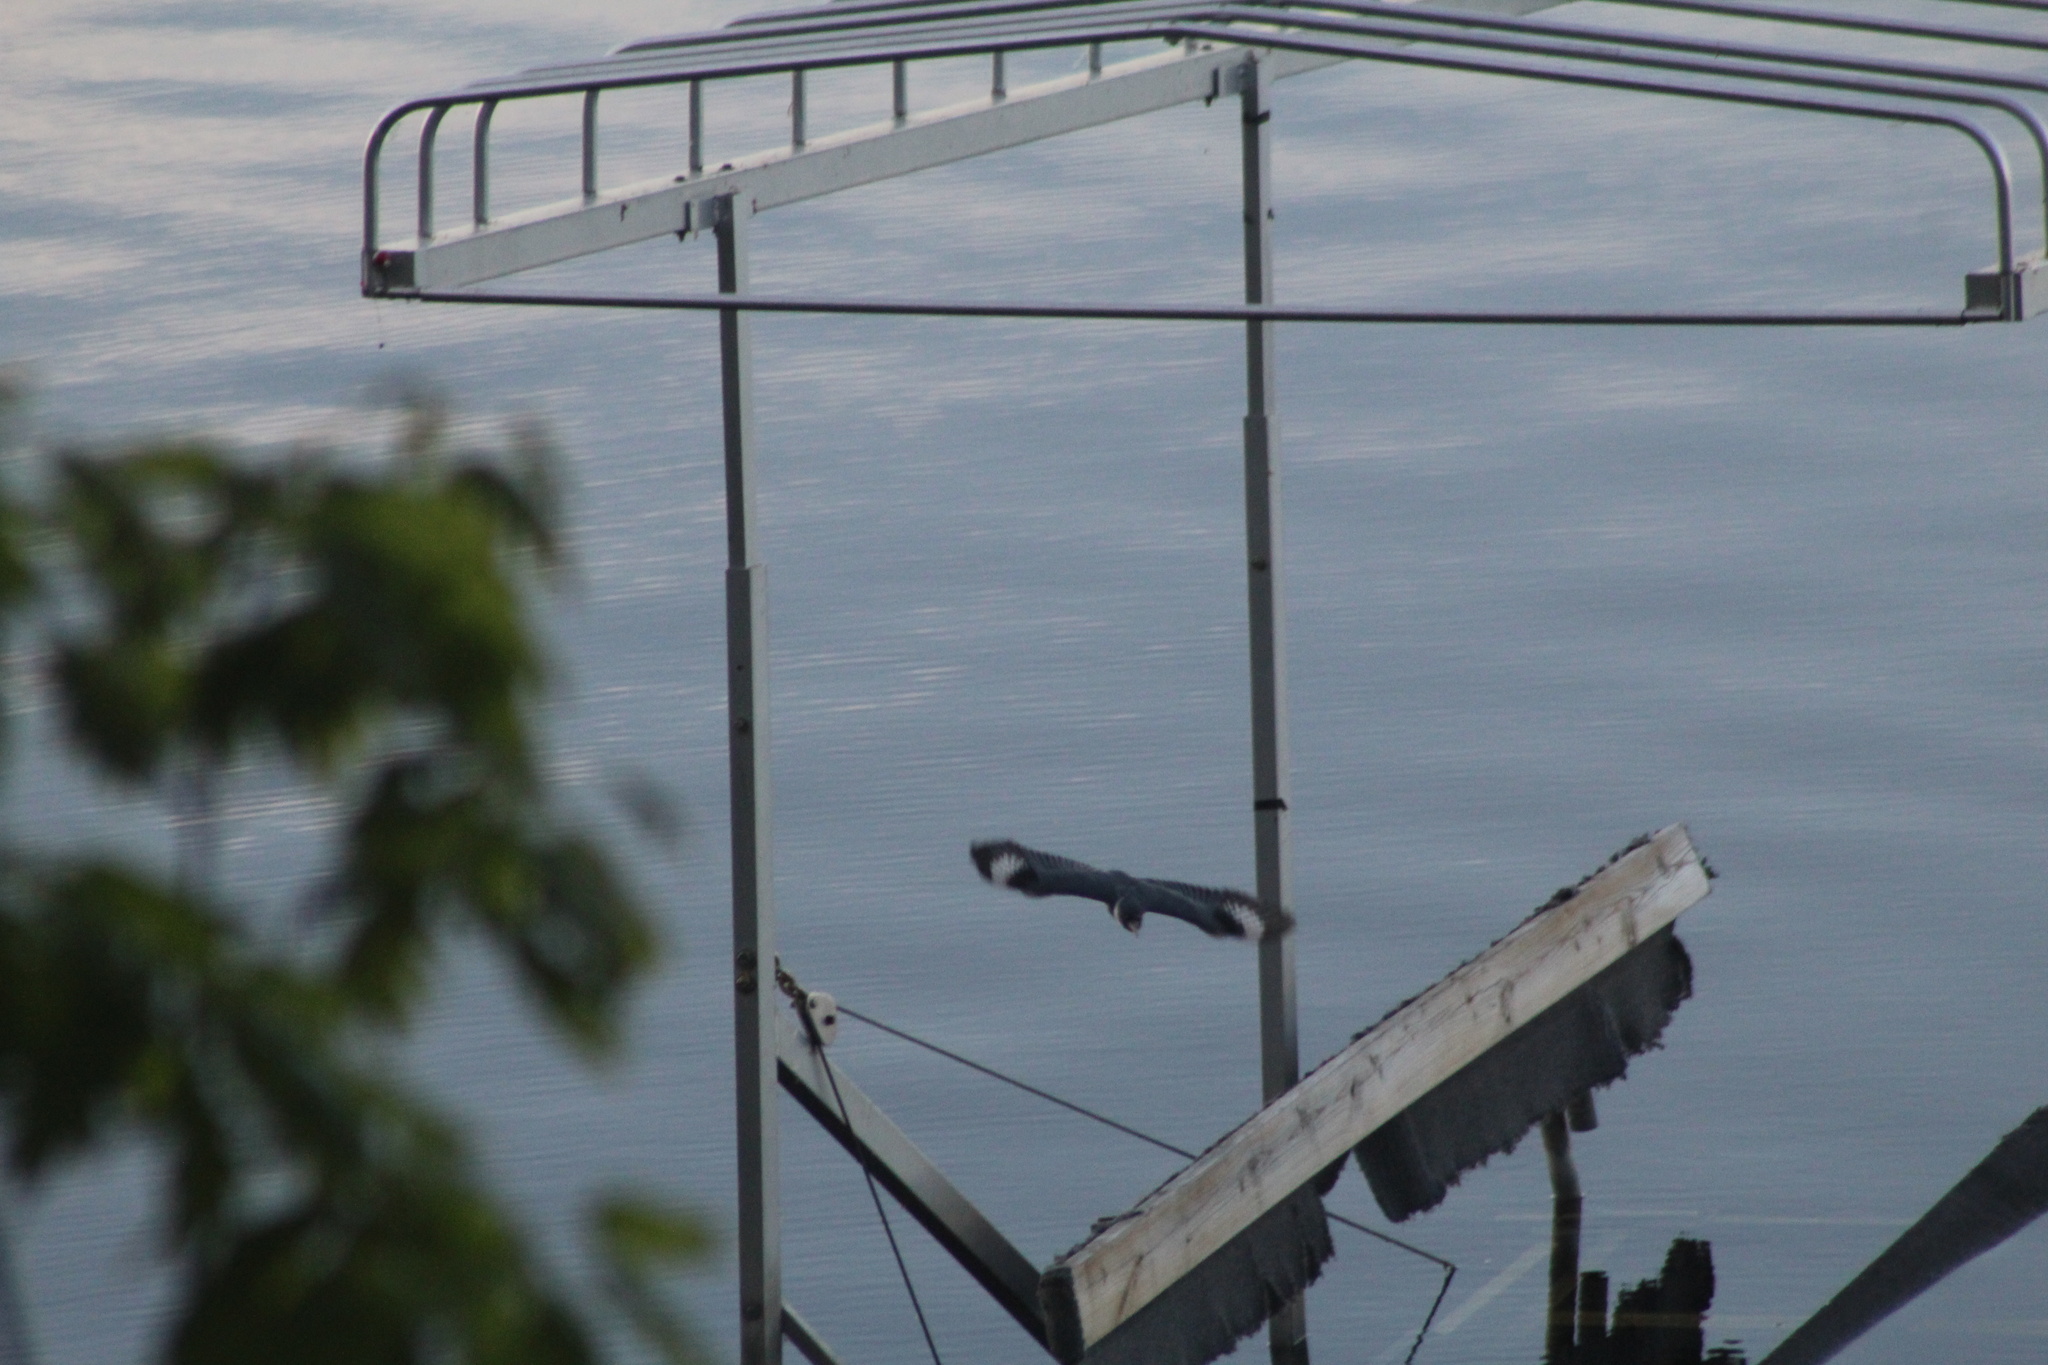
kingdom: Animalia
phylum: Chordata
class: Aves
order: Coraciiformes
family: Alcedinidae
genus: Megaceryle
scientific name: Megaceryle alcyon
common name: Belted kingfisher
